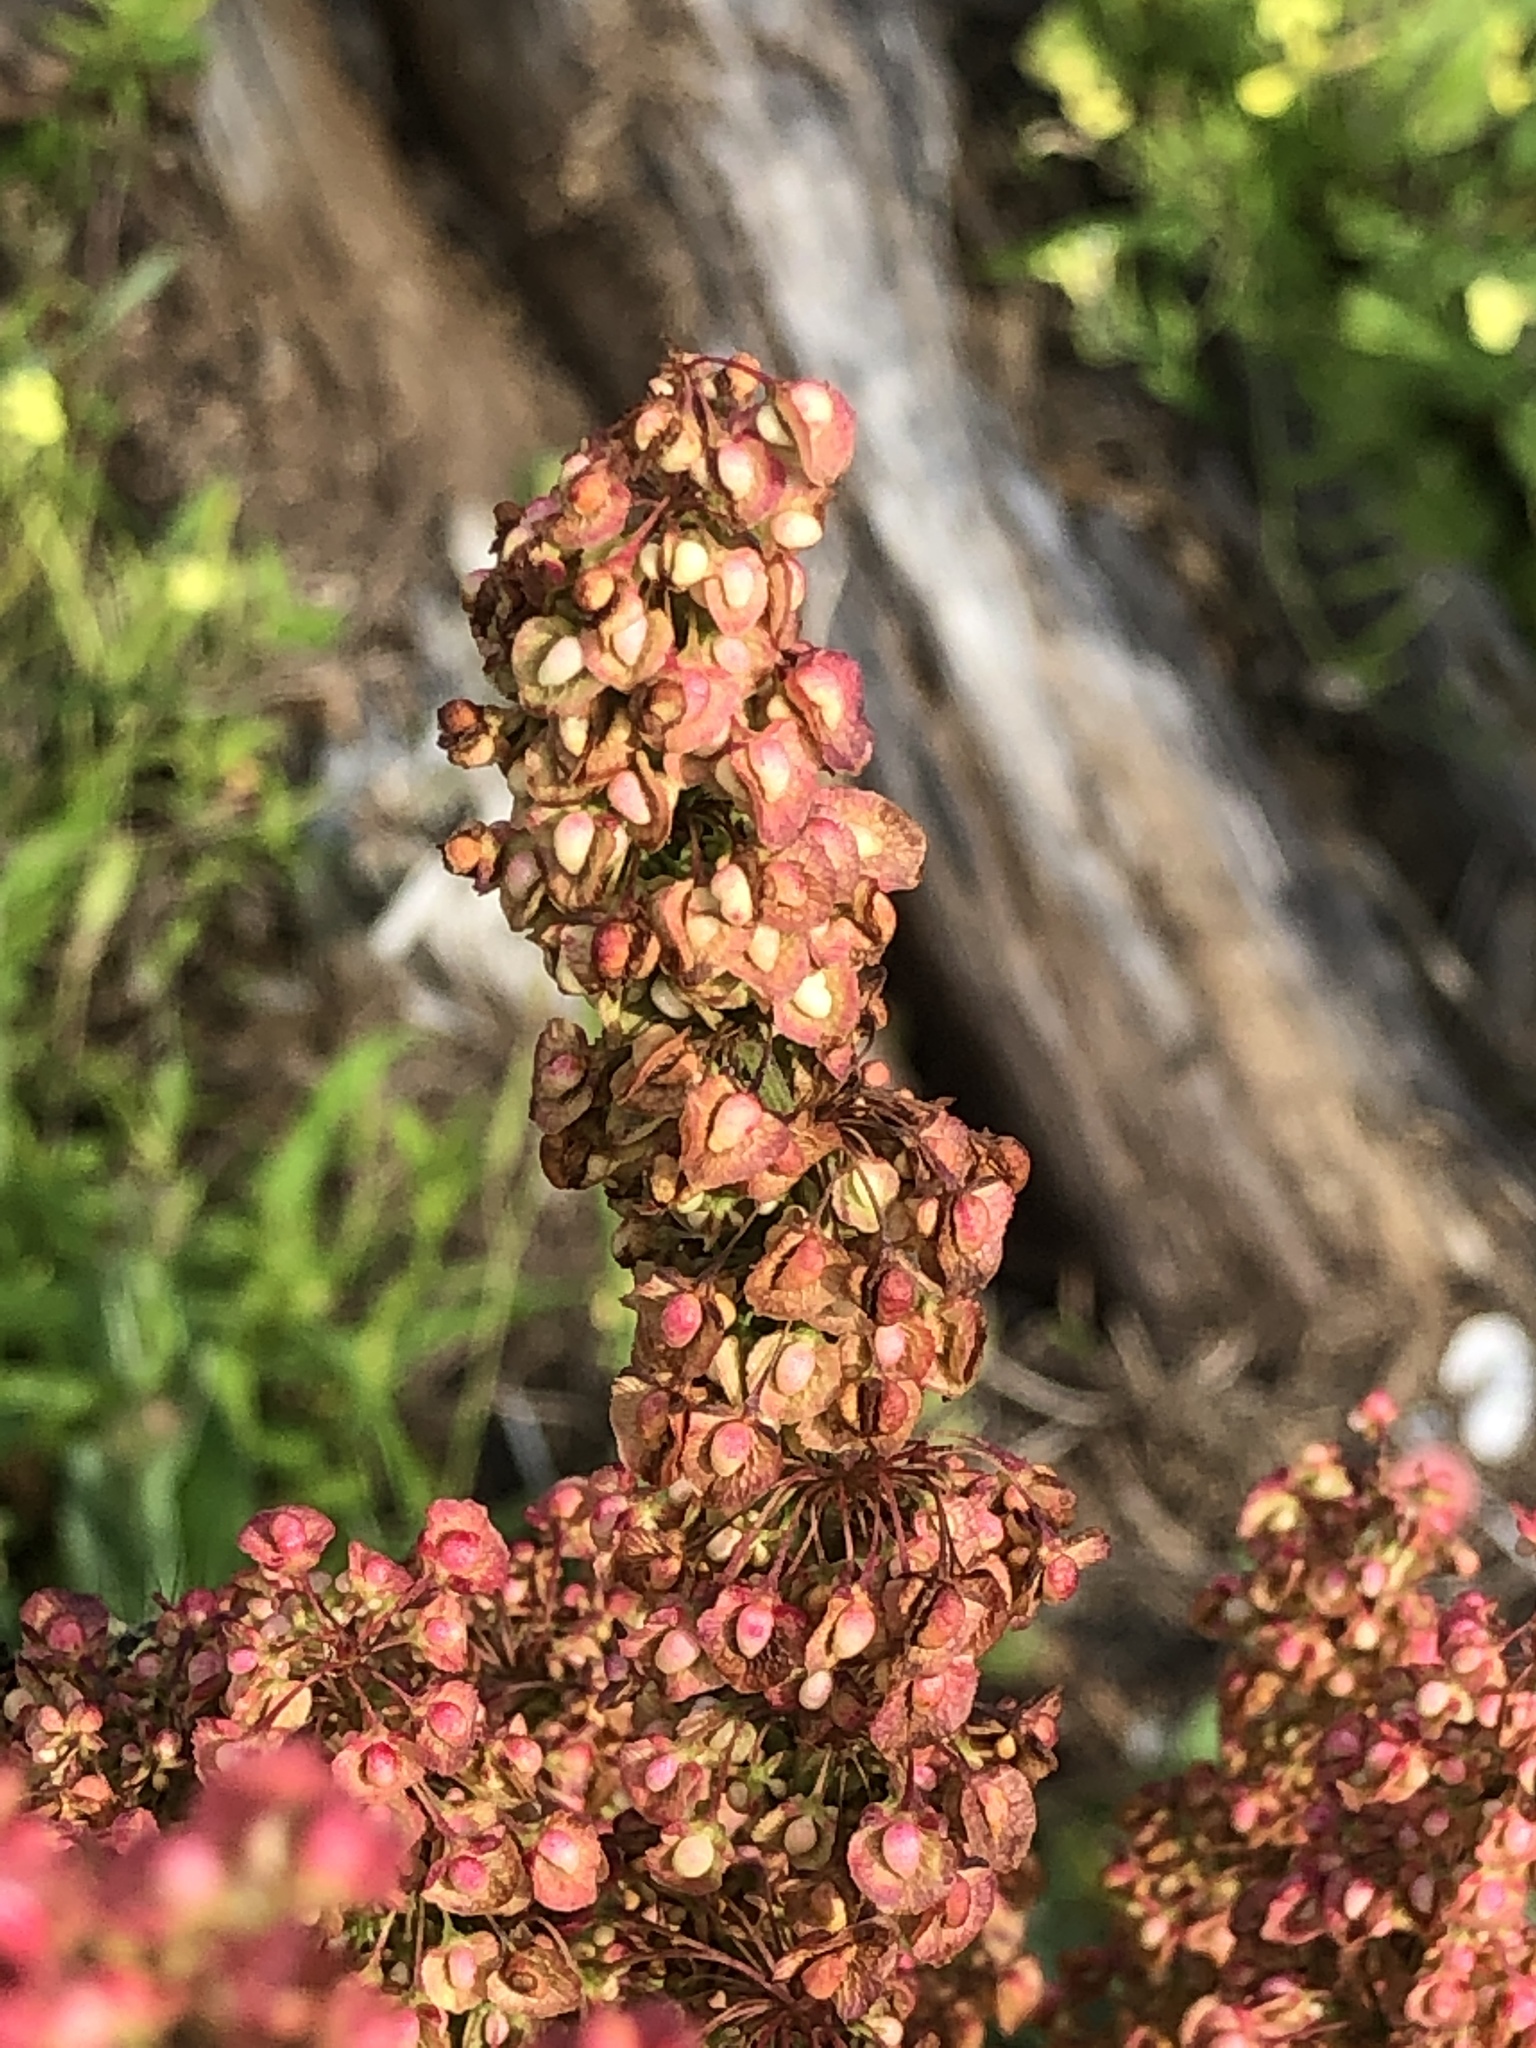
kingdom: Plantae
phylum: Tracheophyta
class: Magnoliopsida
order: Caryophyllales
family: Polygonaceae
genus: Rumex
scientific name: Rumex crispus
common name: Curled dock
